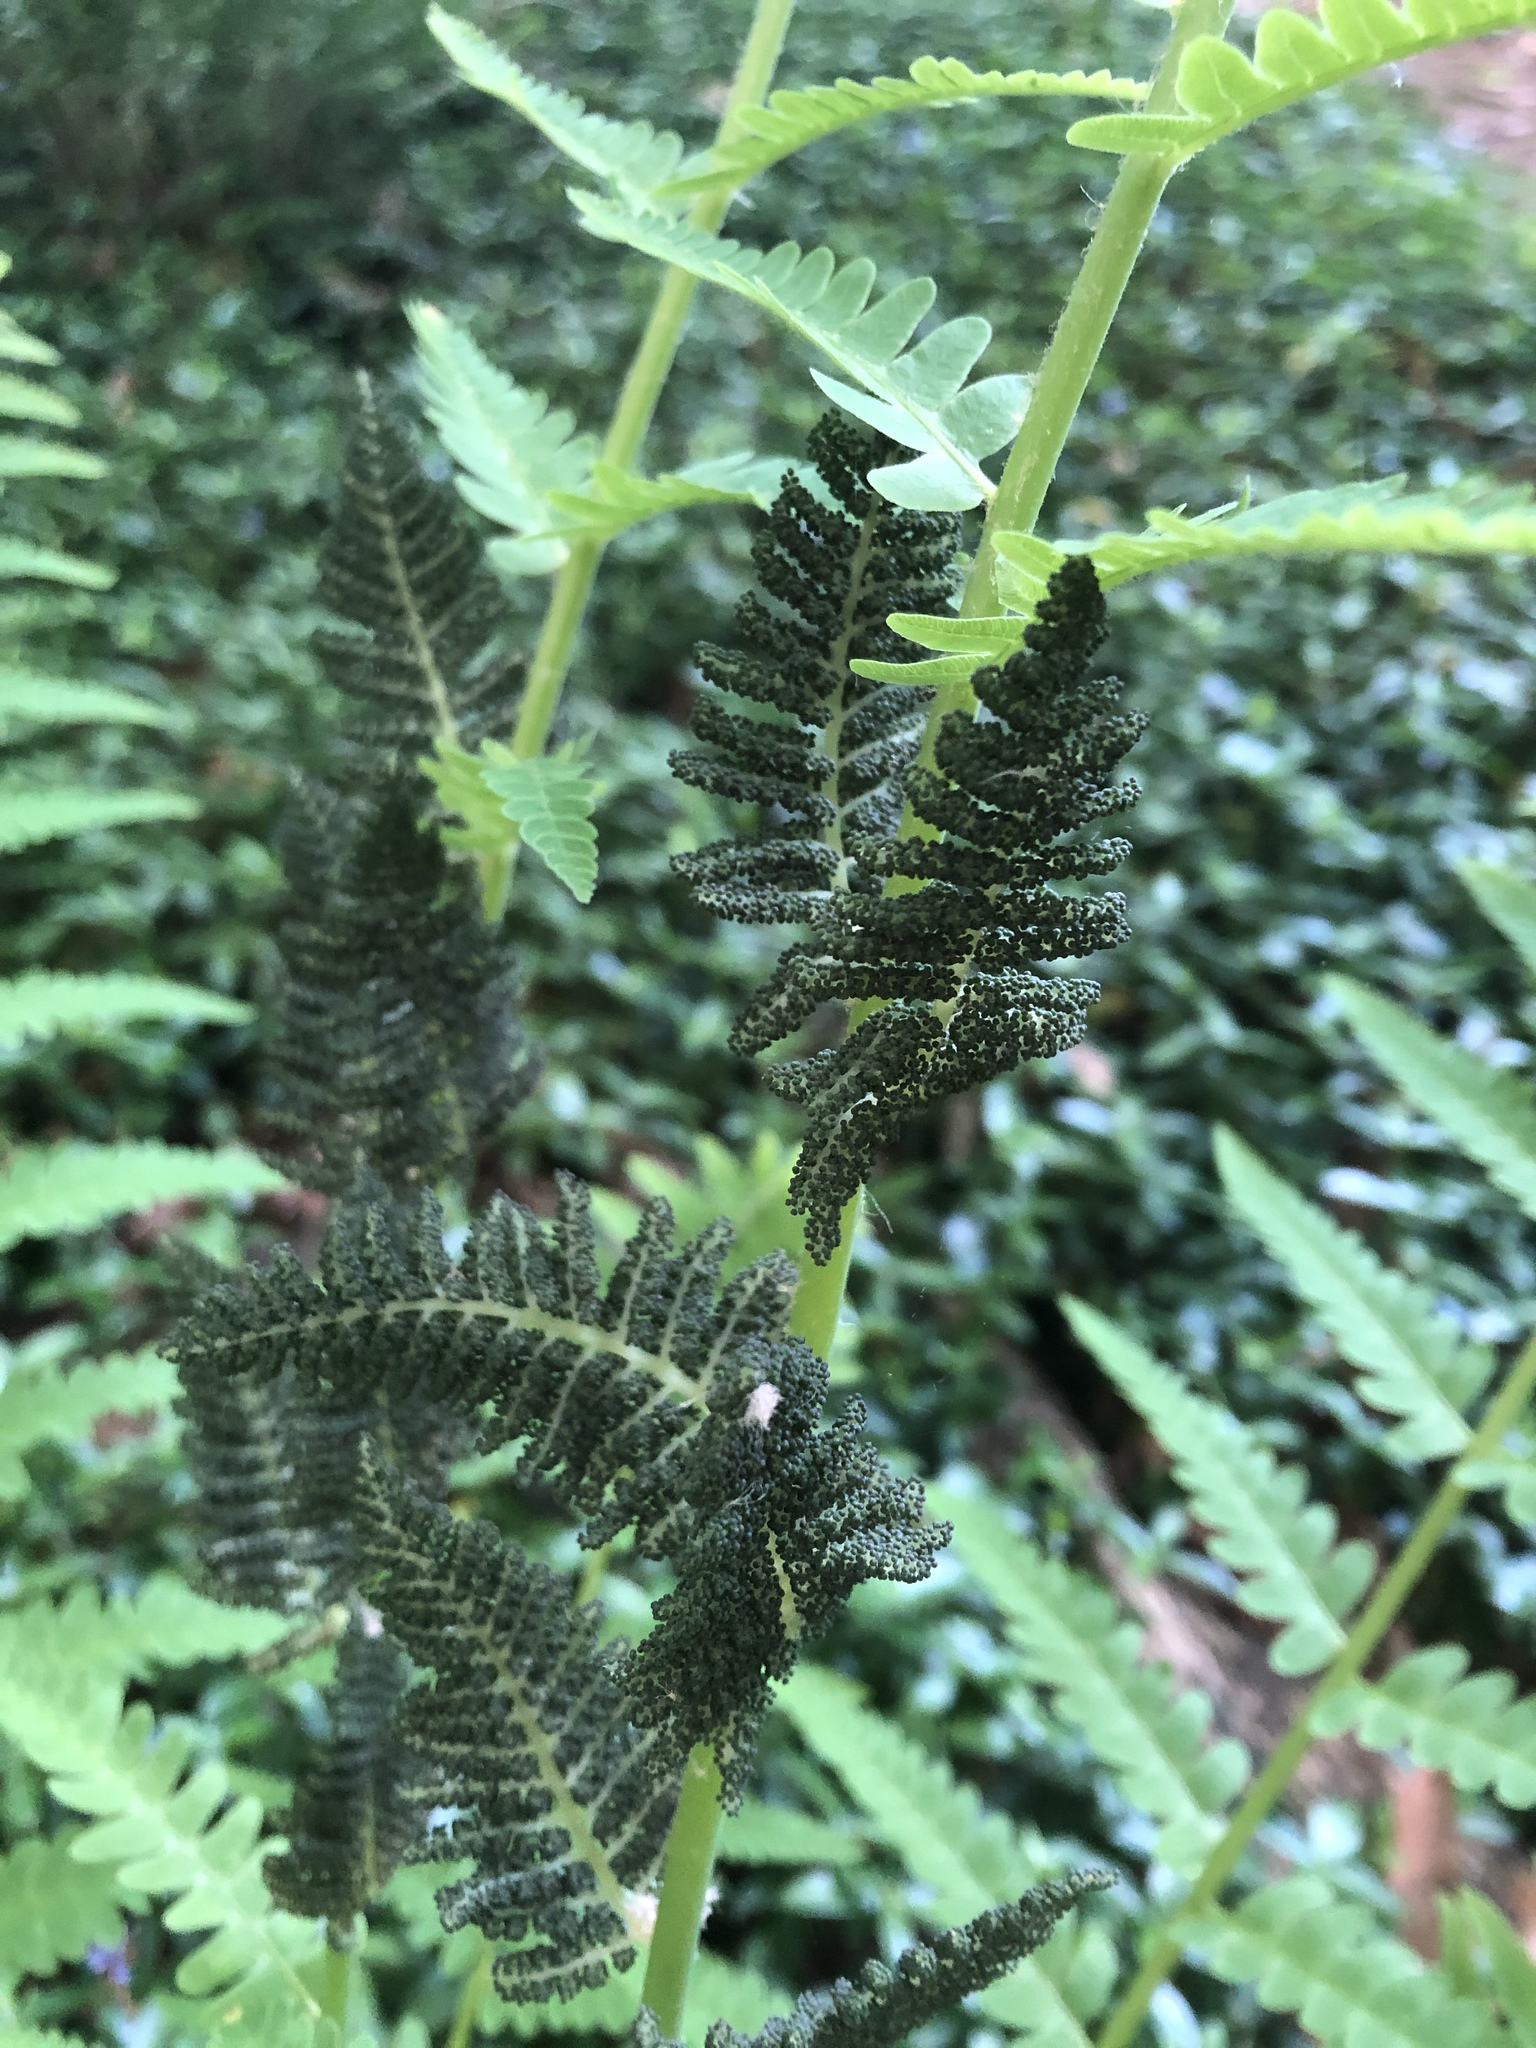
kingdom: Plantae
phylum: Tracheophyta
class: Polypodiopsida
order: Osmundales
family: Osmundaceae
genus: Claytosmunda
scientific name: Claytosmunda claytoniana
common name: Clayton's fern
